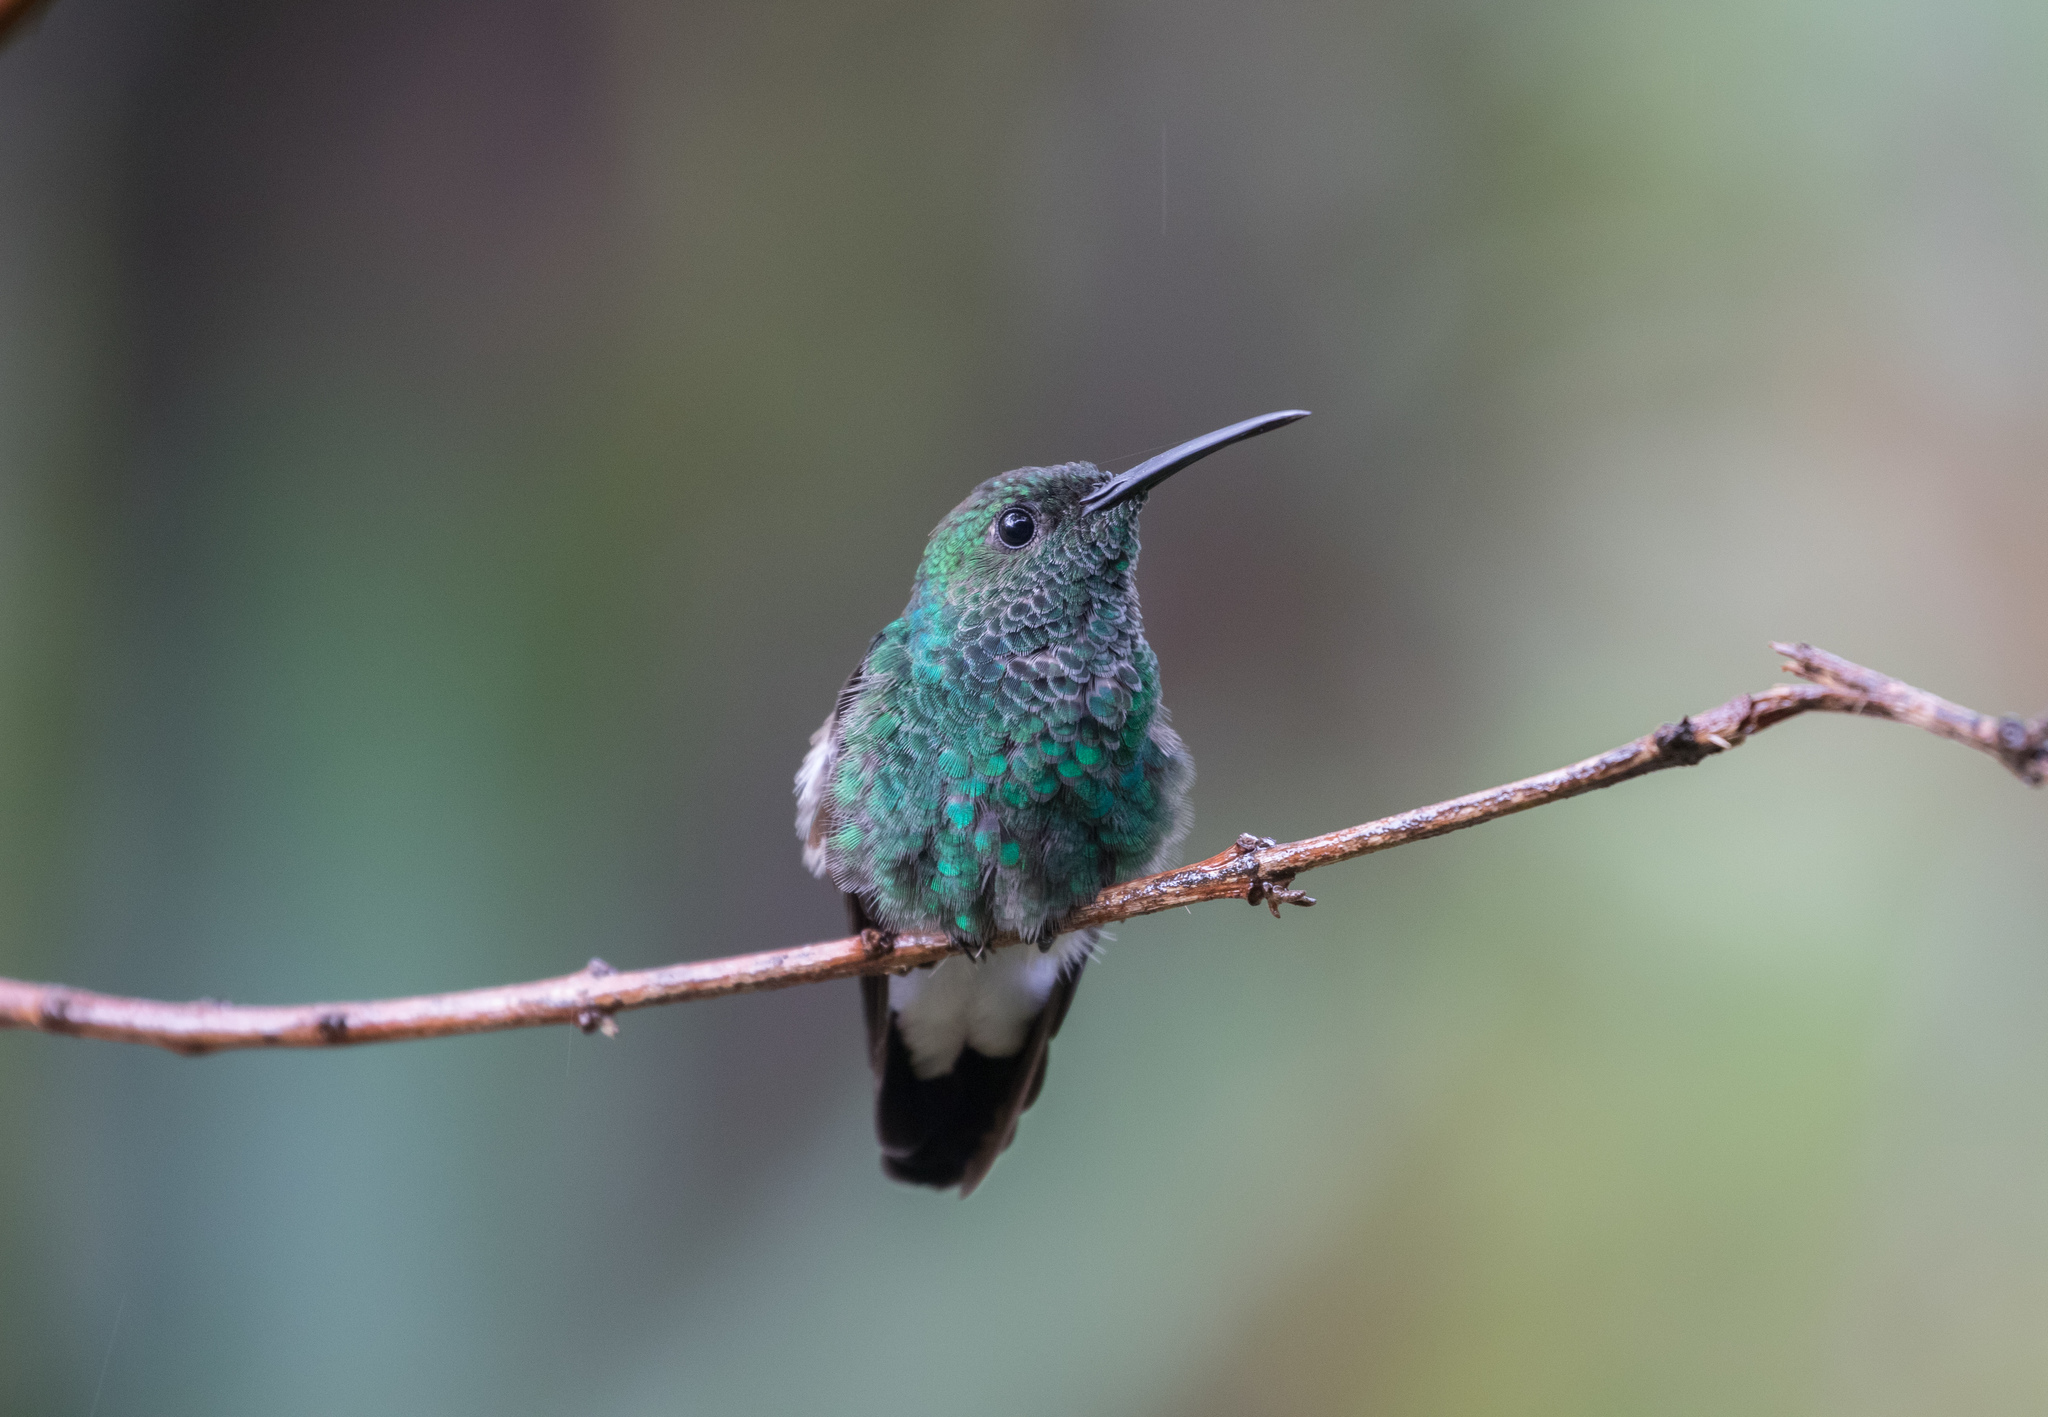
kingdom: Animalia
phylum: Chordata
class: Aves
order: Apodiformes
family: Trochilidae
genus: Chalybura
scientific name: Chalybura buffonii
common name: White-vented plumeleteer
